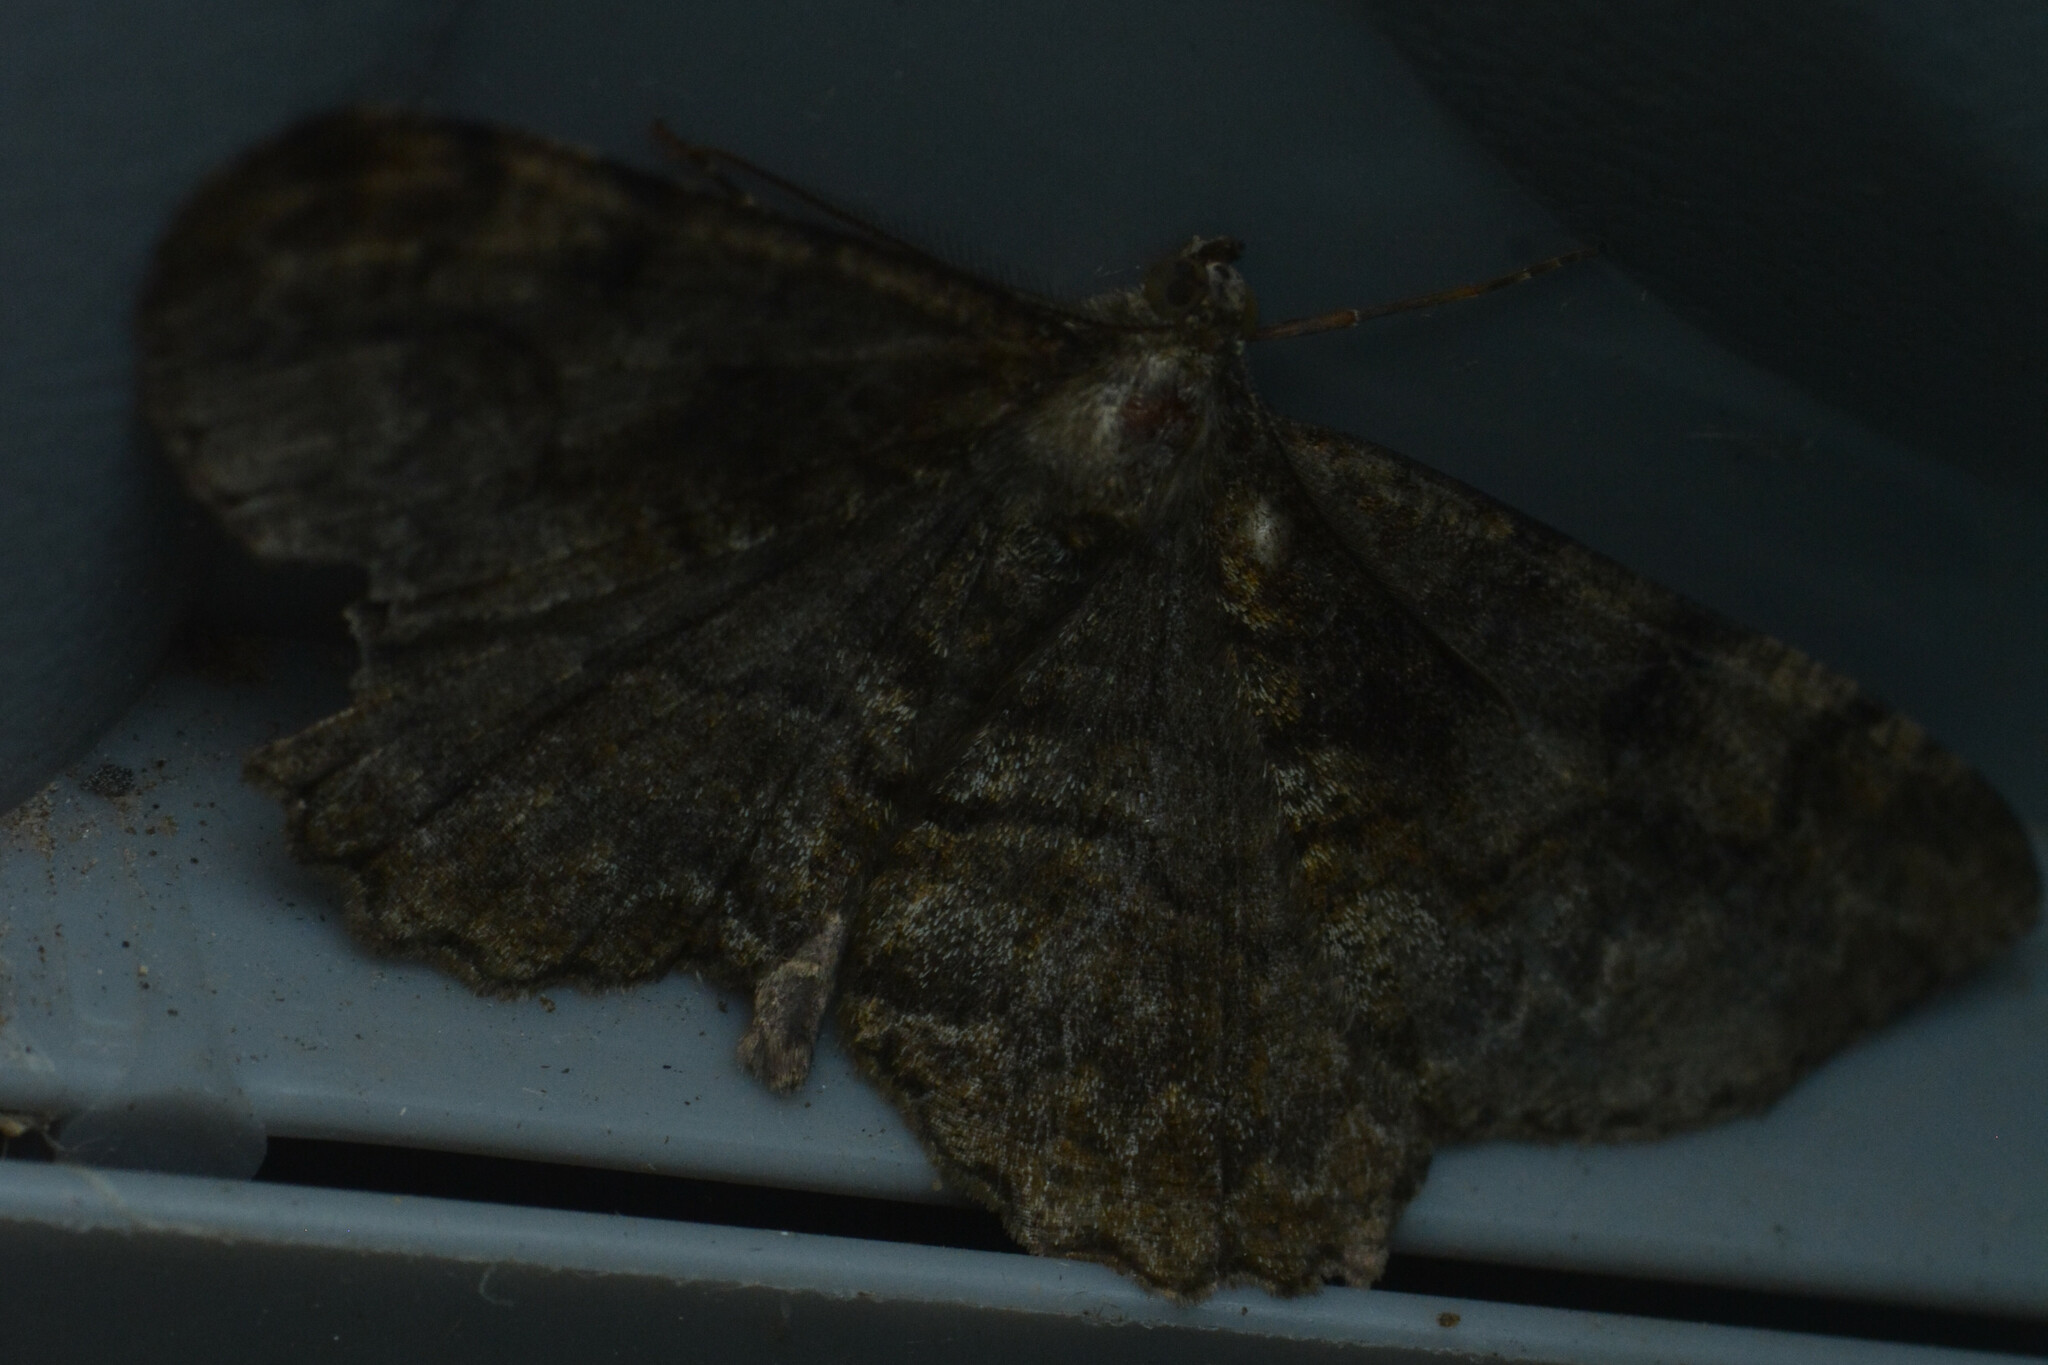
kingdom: Animalia
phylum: Arthropoda
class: Insecta
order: Lepidoptera
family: Geometridae
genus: Alcis
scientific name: Alcis repandata
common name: Mottled beauty
